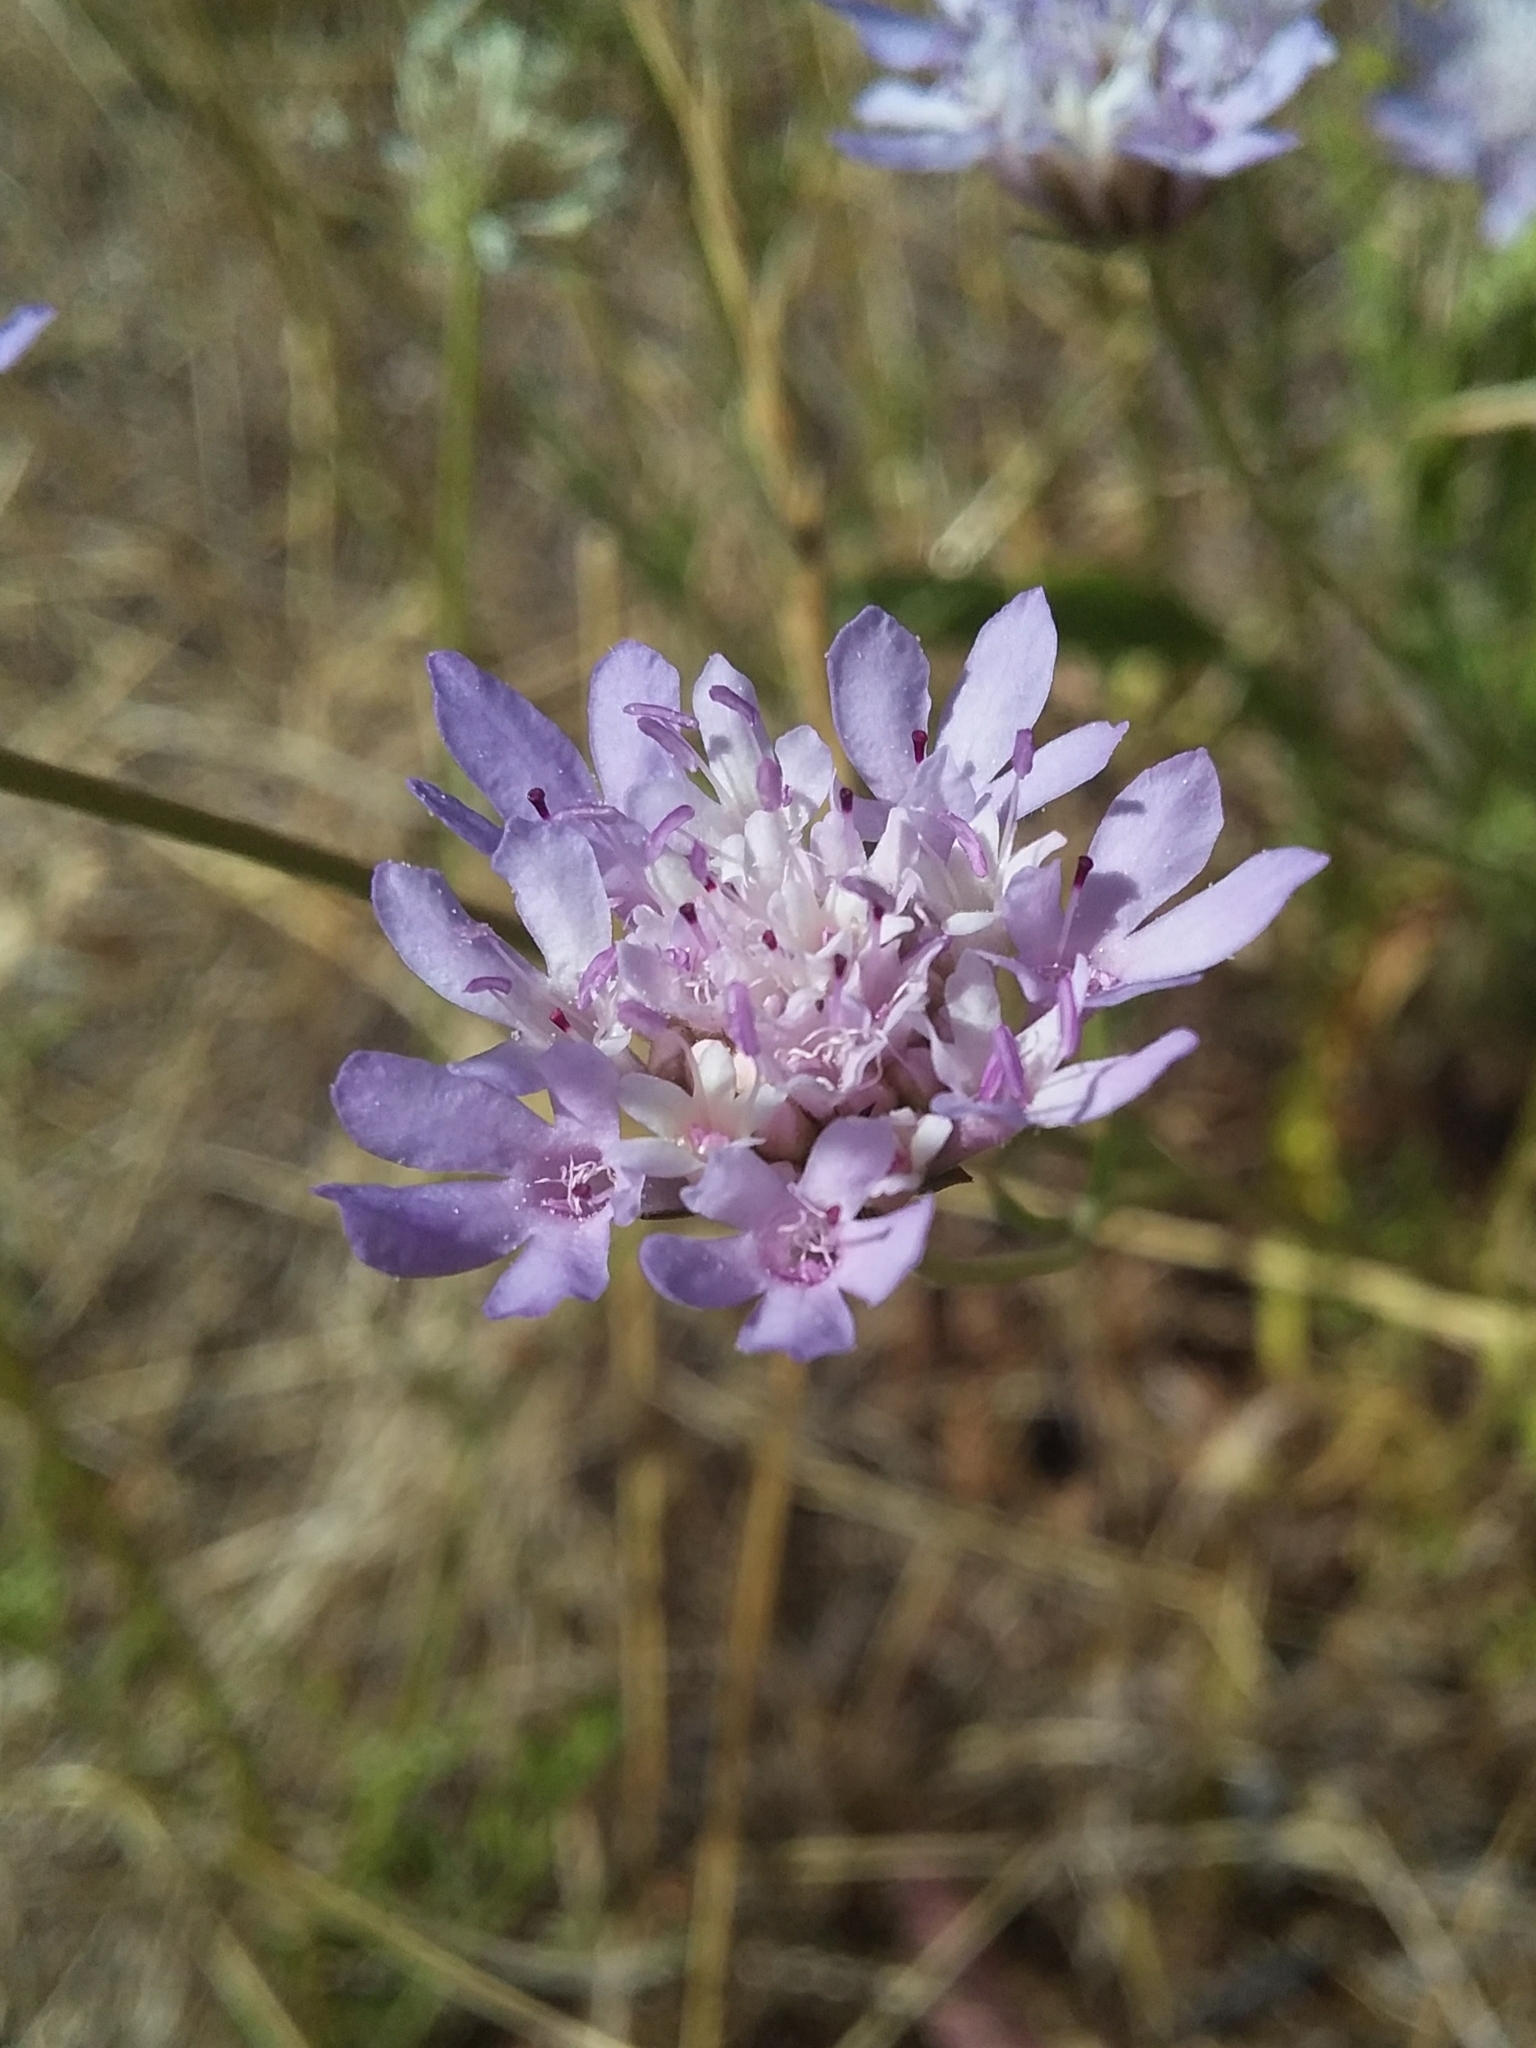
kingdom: Plantae
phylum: Tracheophyta
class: Magnoliopsida
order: Dipsacales
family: Caprifoliaceae
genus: Sixalix
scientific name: Sixalix atropurpurea
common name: Sweet scabious
